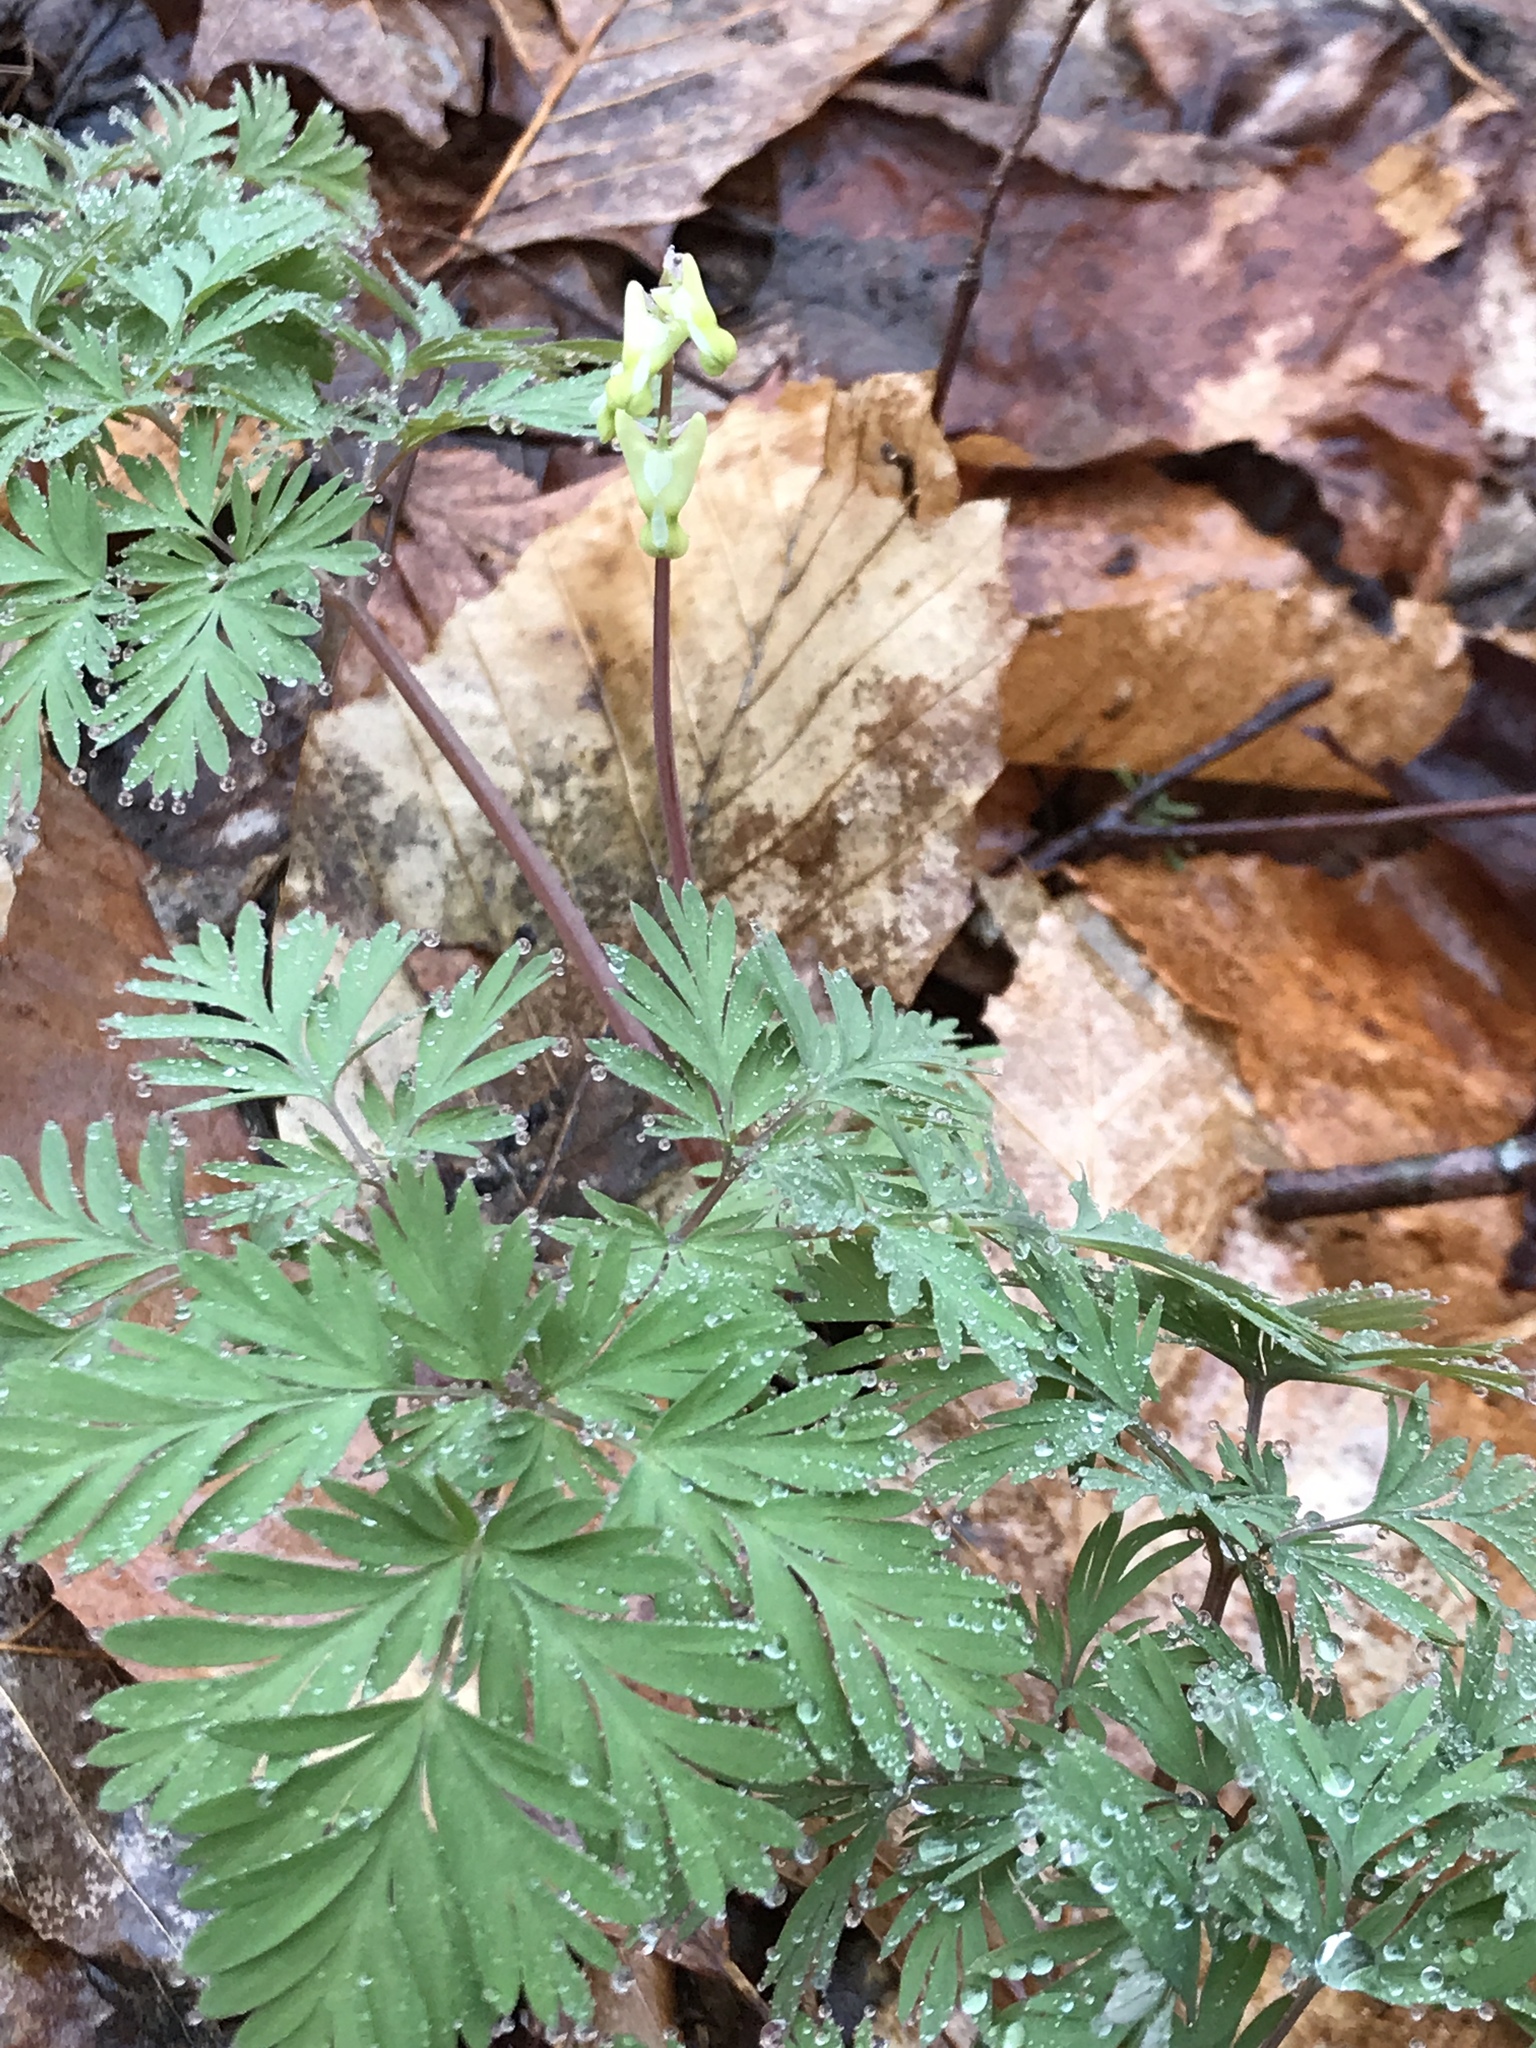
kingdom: Plantae
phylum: Tracheophyta
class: Magnoliopsida
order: Ranunculales
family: Papaveraceae
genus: Dicentra
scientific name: Dicentra cucullaria
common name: Dutchman's breeches
